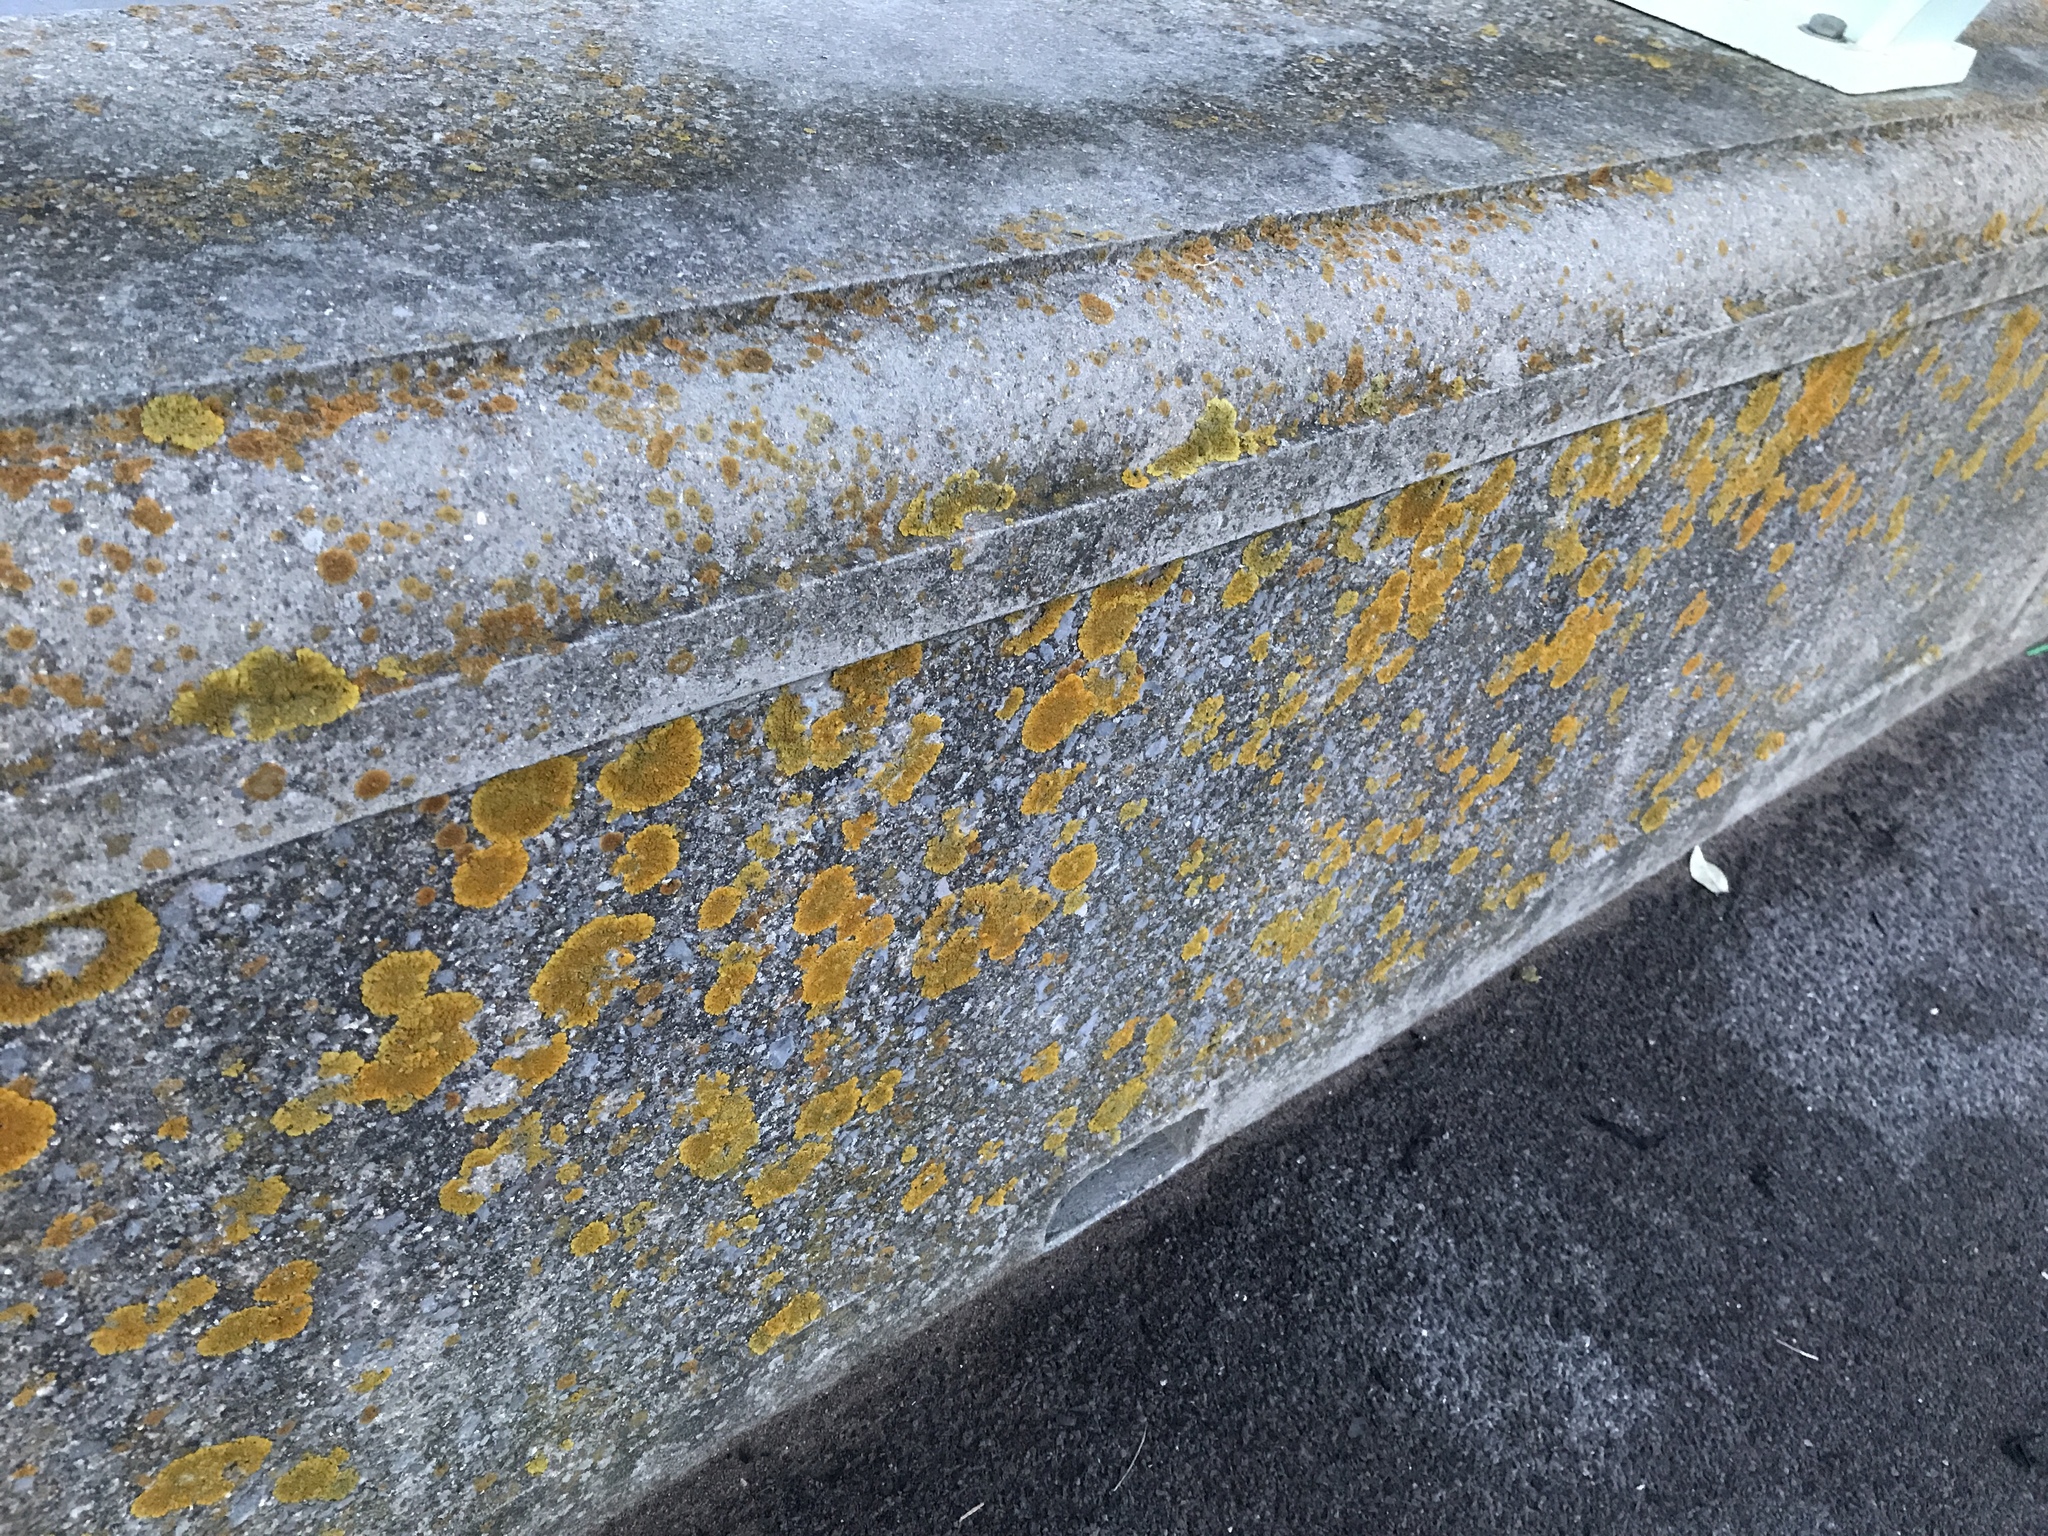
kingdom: Fungi
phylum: Ascomycota
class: Lecanoromycetes
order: Teloschistales
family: Teloschistaceae
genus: Xanthoria
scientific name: Xanthoria calcicola
